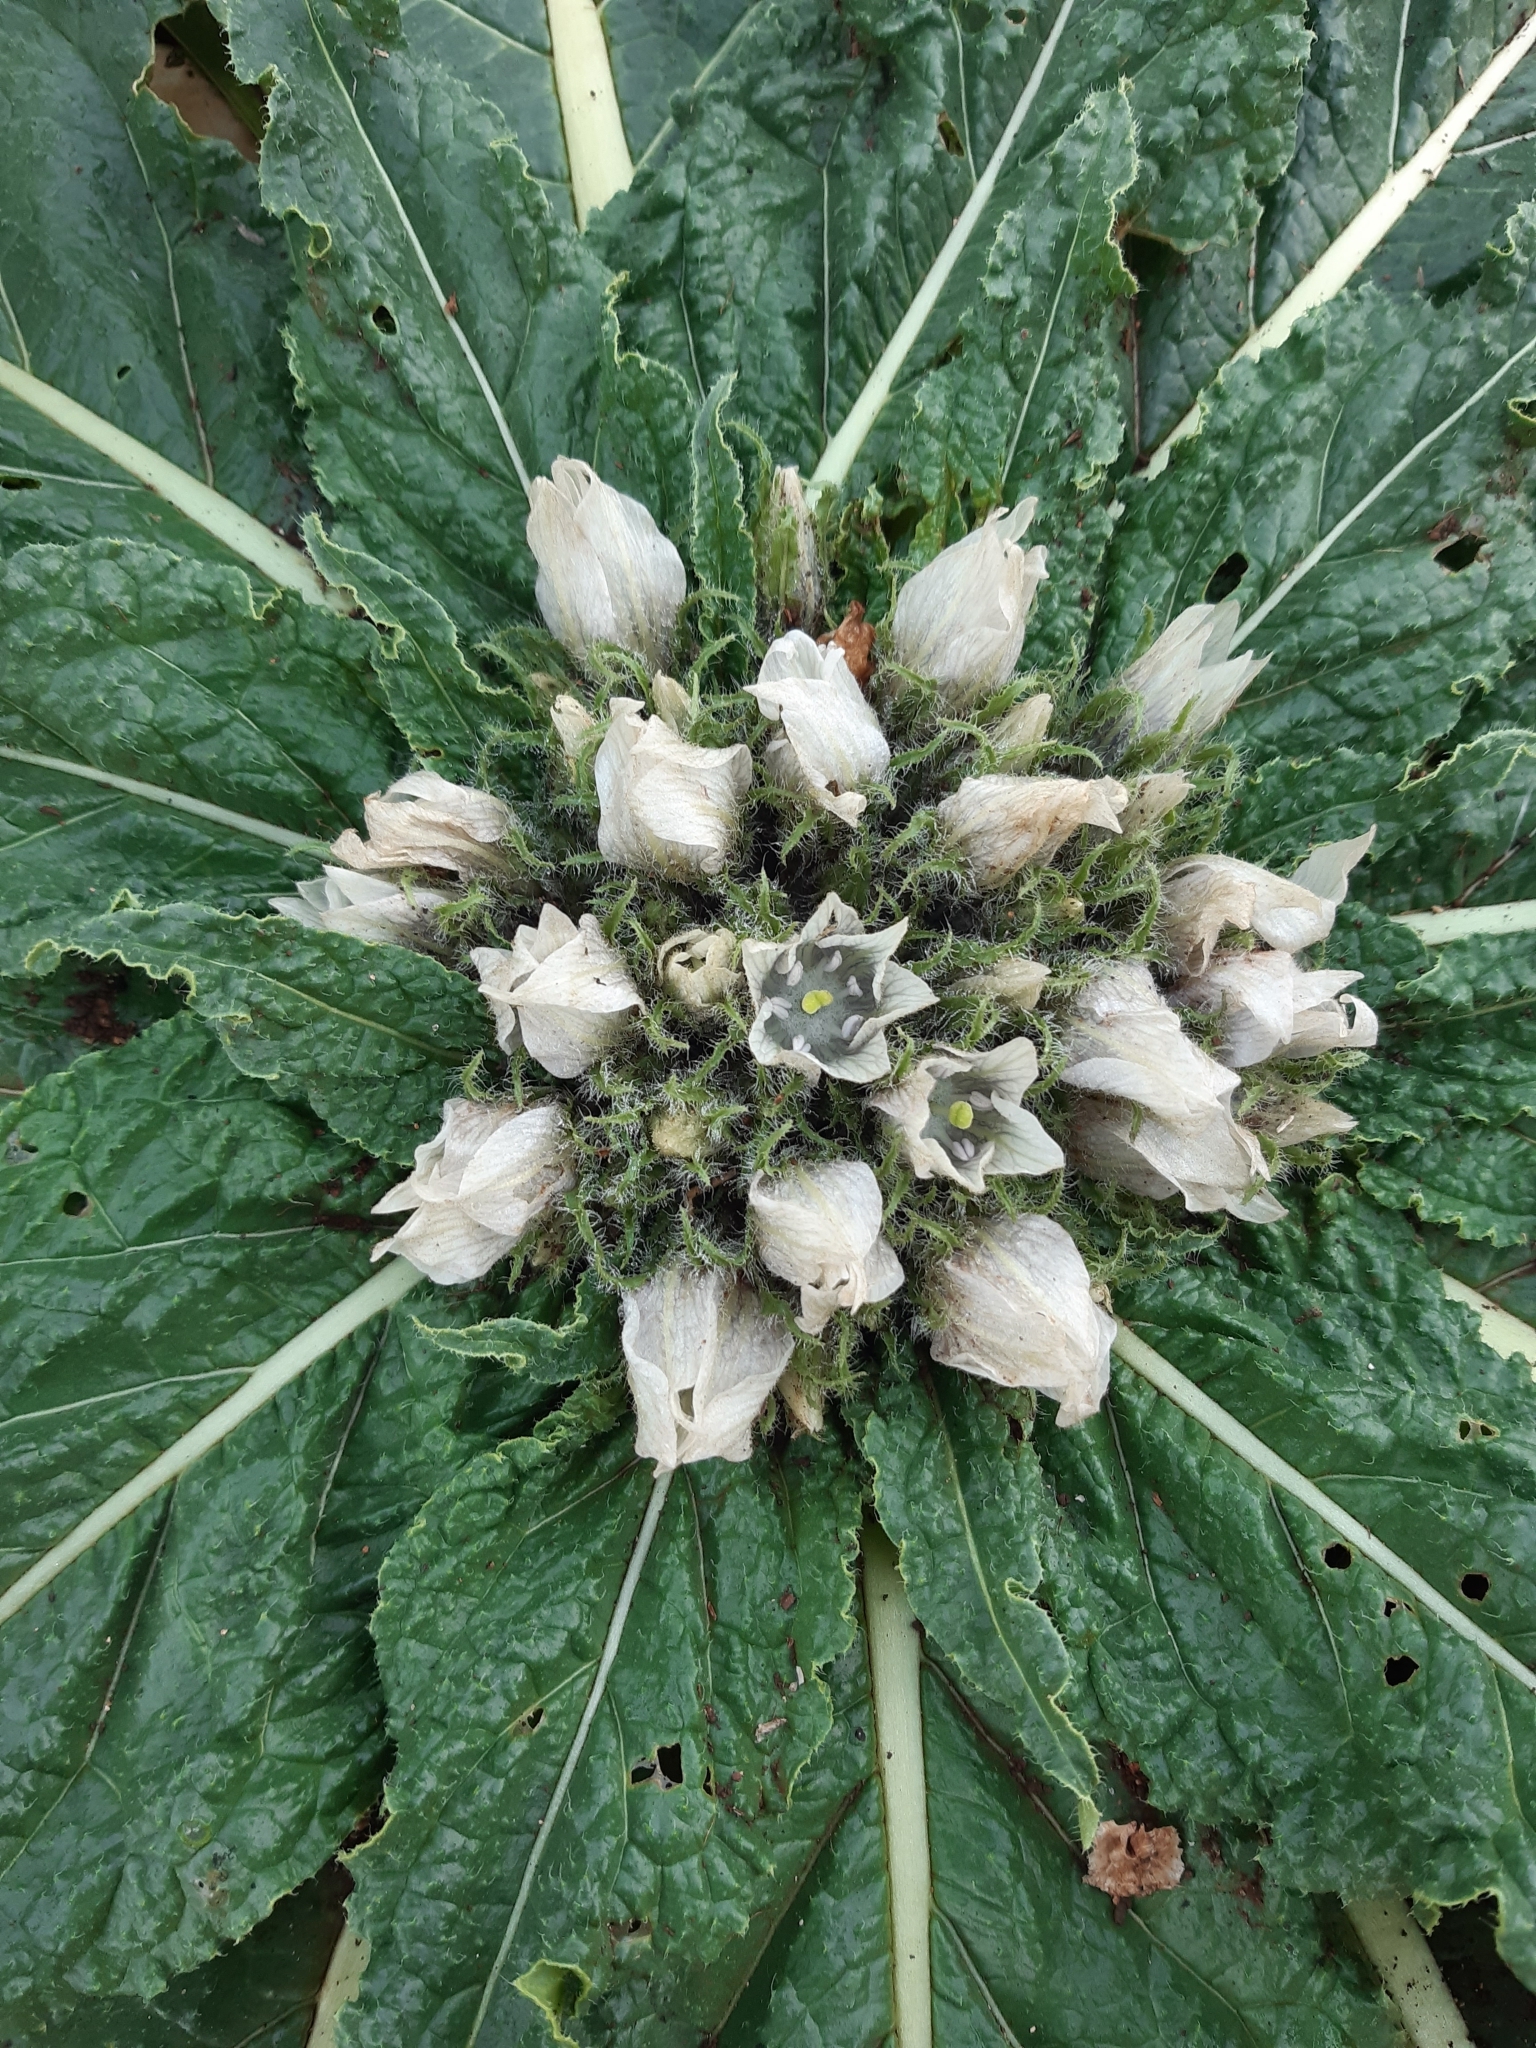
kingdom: Plantae
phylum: Tracheophyta
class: Magnoliopsida
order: Solanales
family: Solanaceae
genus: Mandragora
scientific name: Mandragora officinarum
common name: Mandrake
